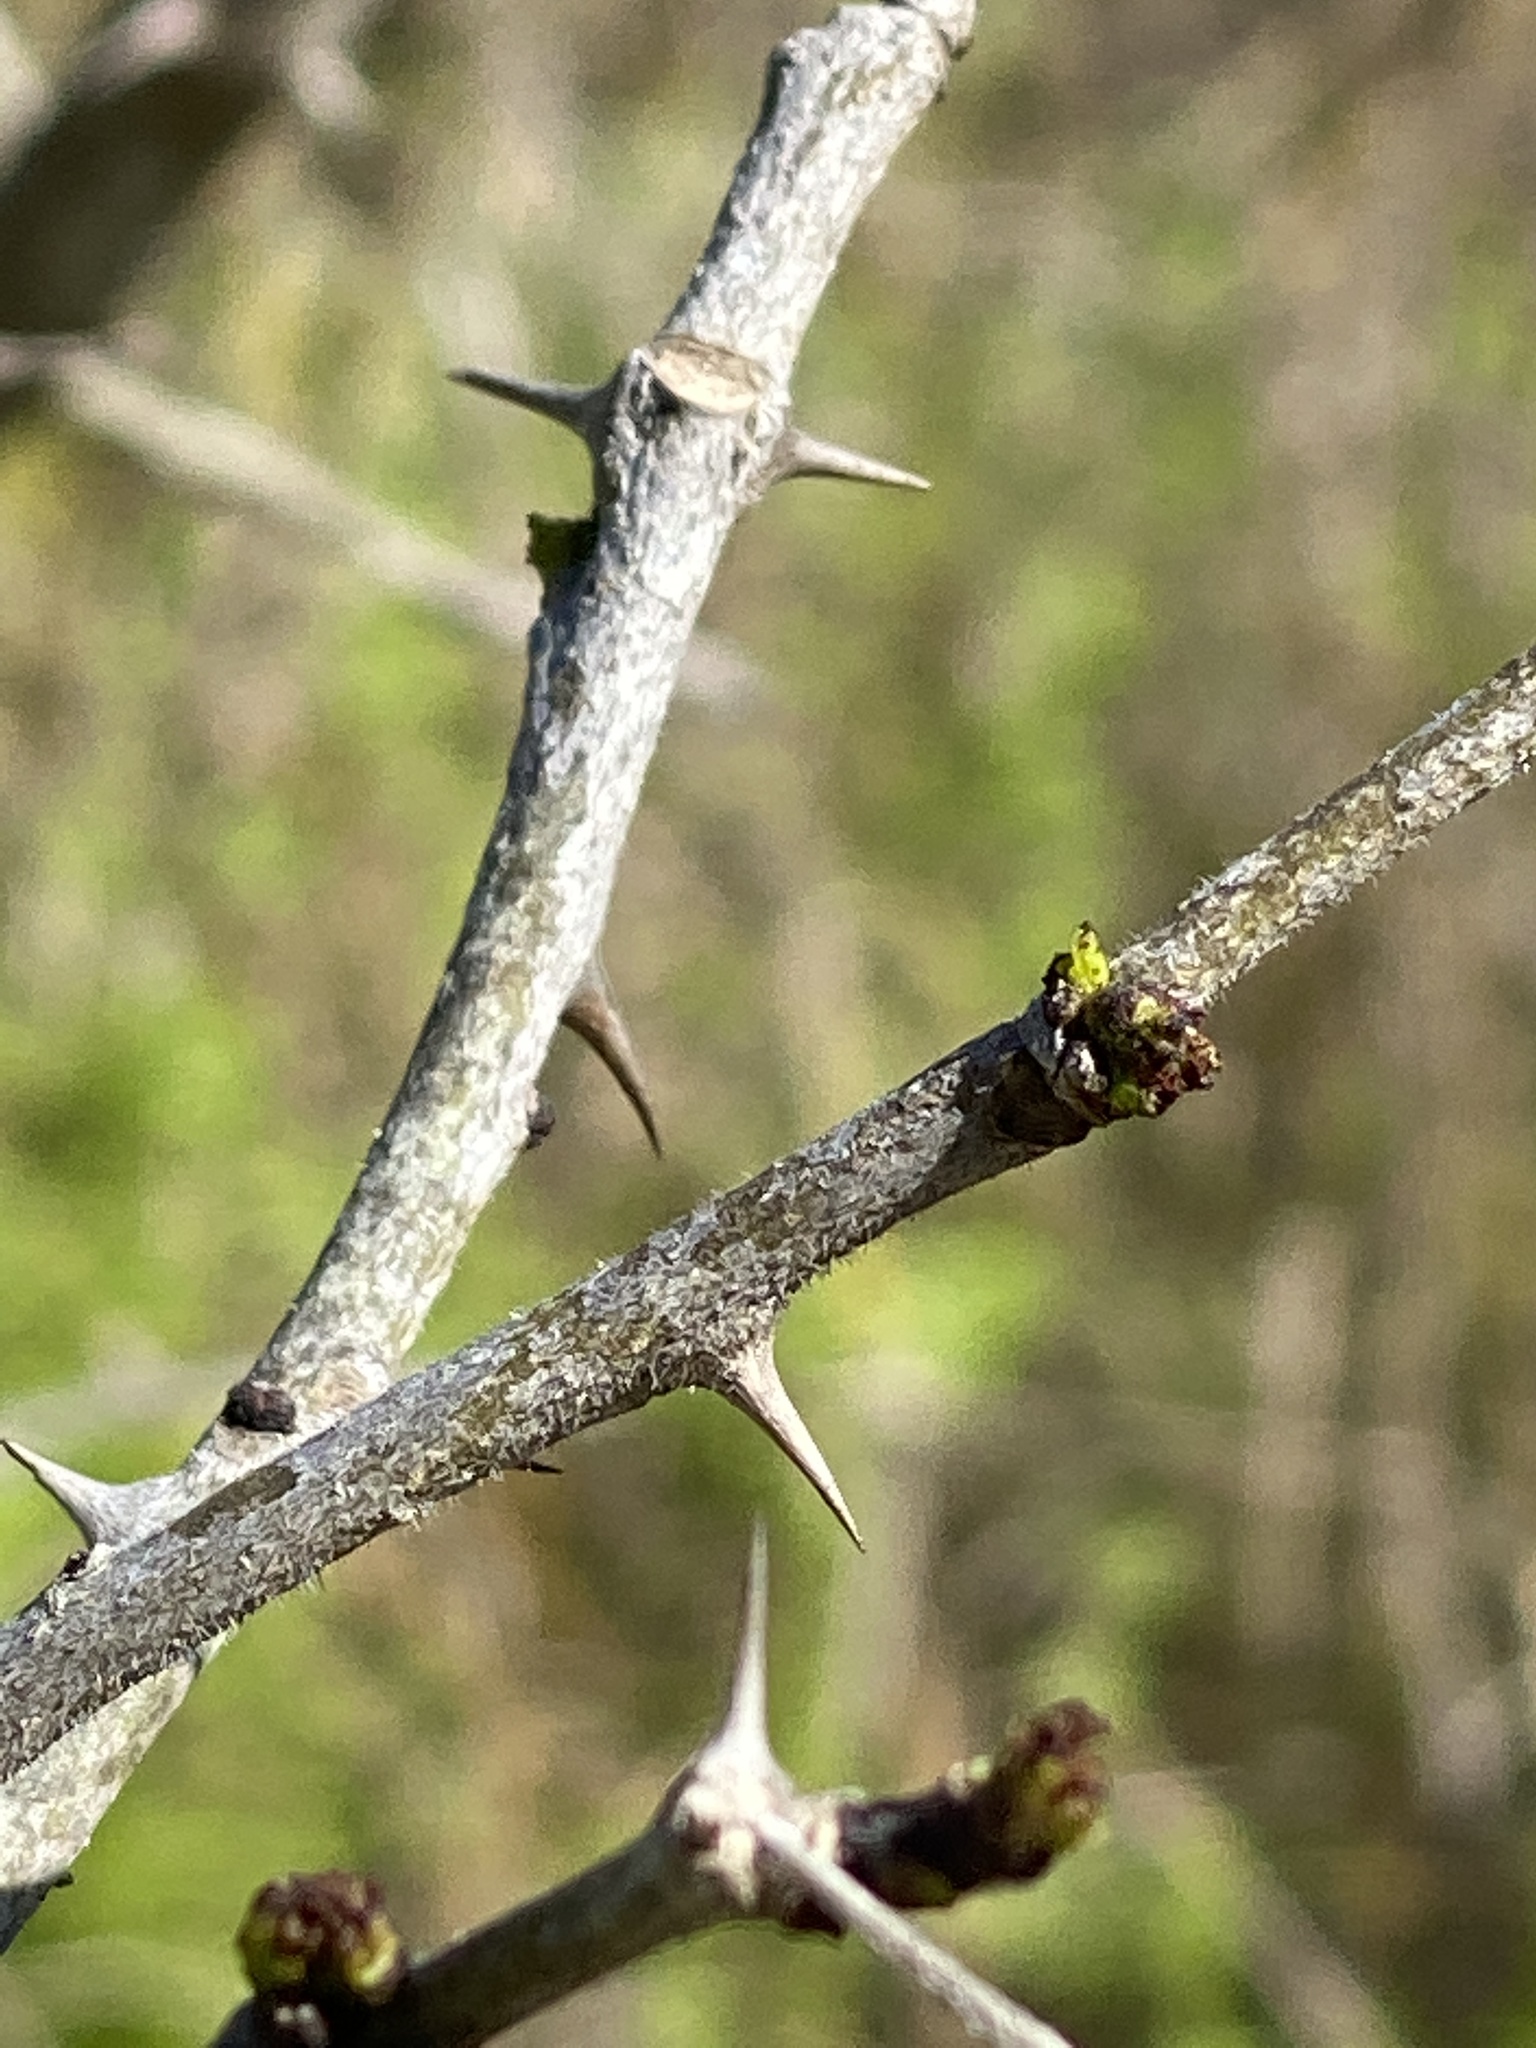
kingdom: Plantae
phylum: Tracheophyta
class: Magnoliopsida
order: Sapindales
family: Rutaceae
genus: Zanthoxylum
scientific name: Zanthoxylum clava-herculis
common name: Hercules'-club
